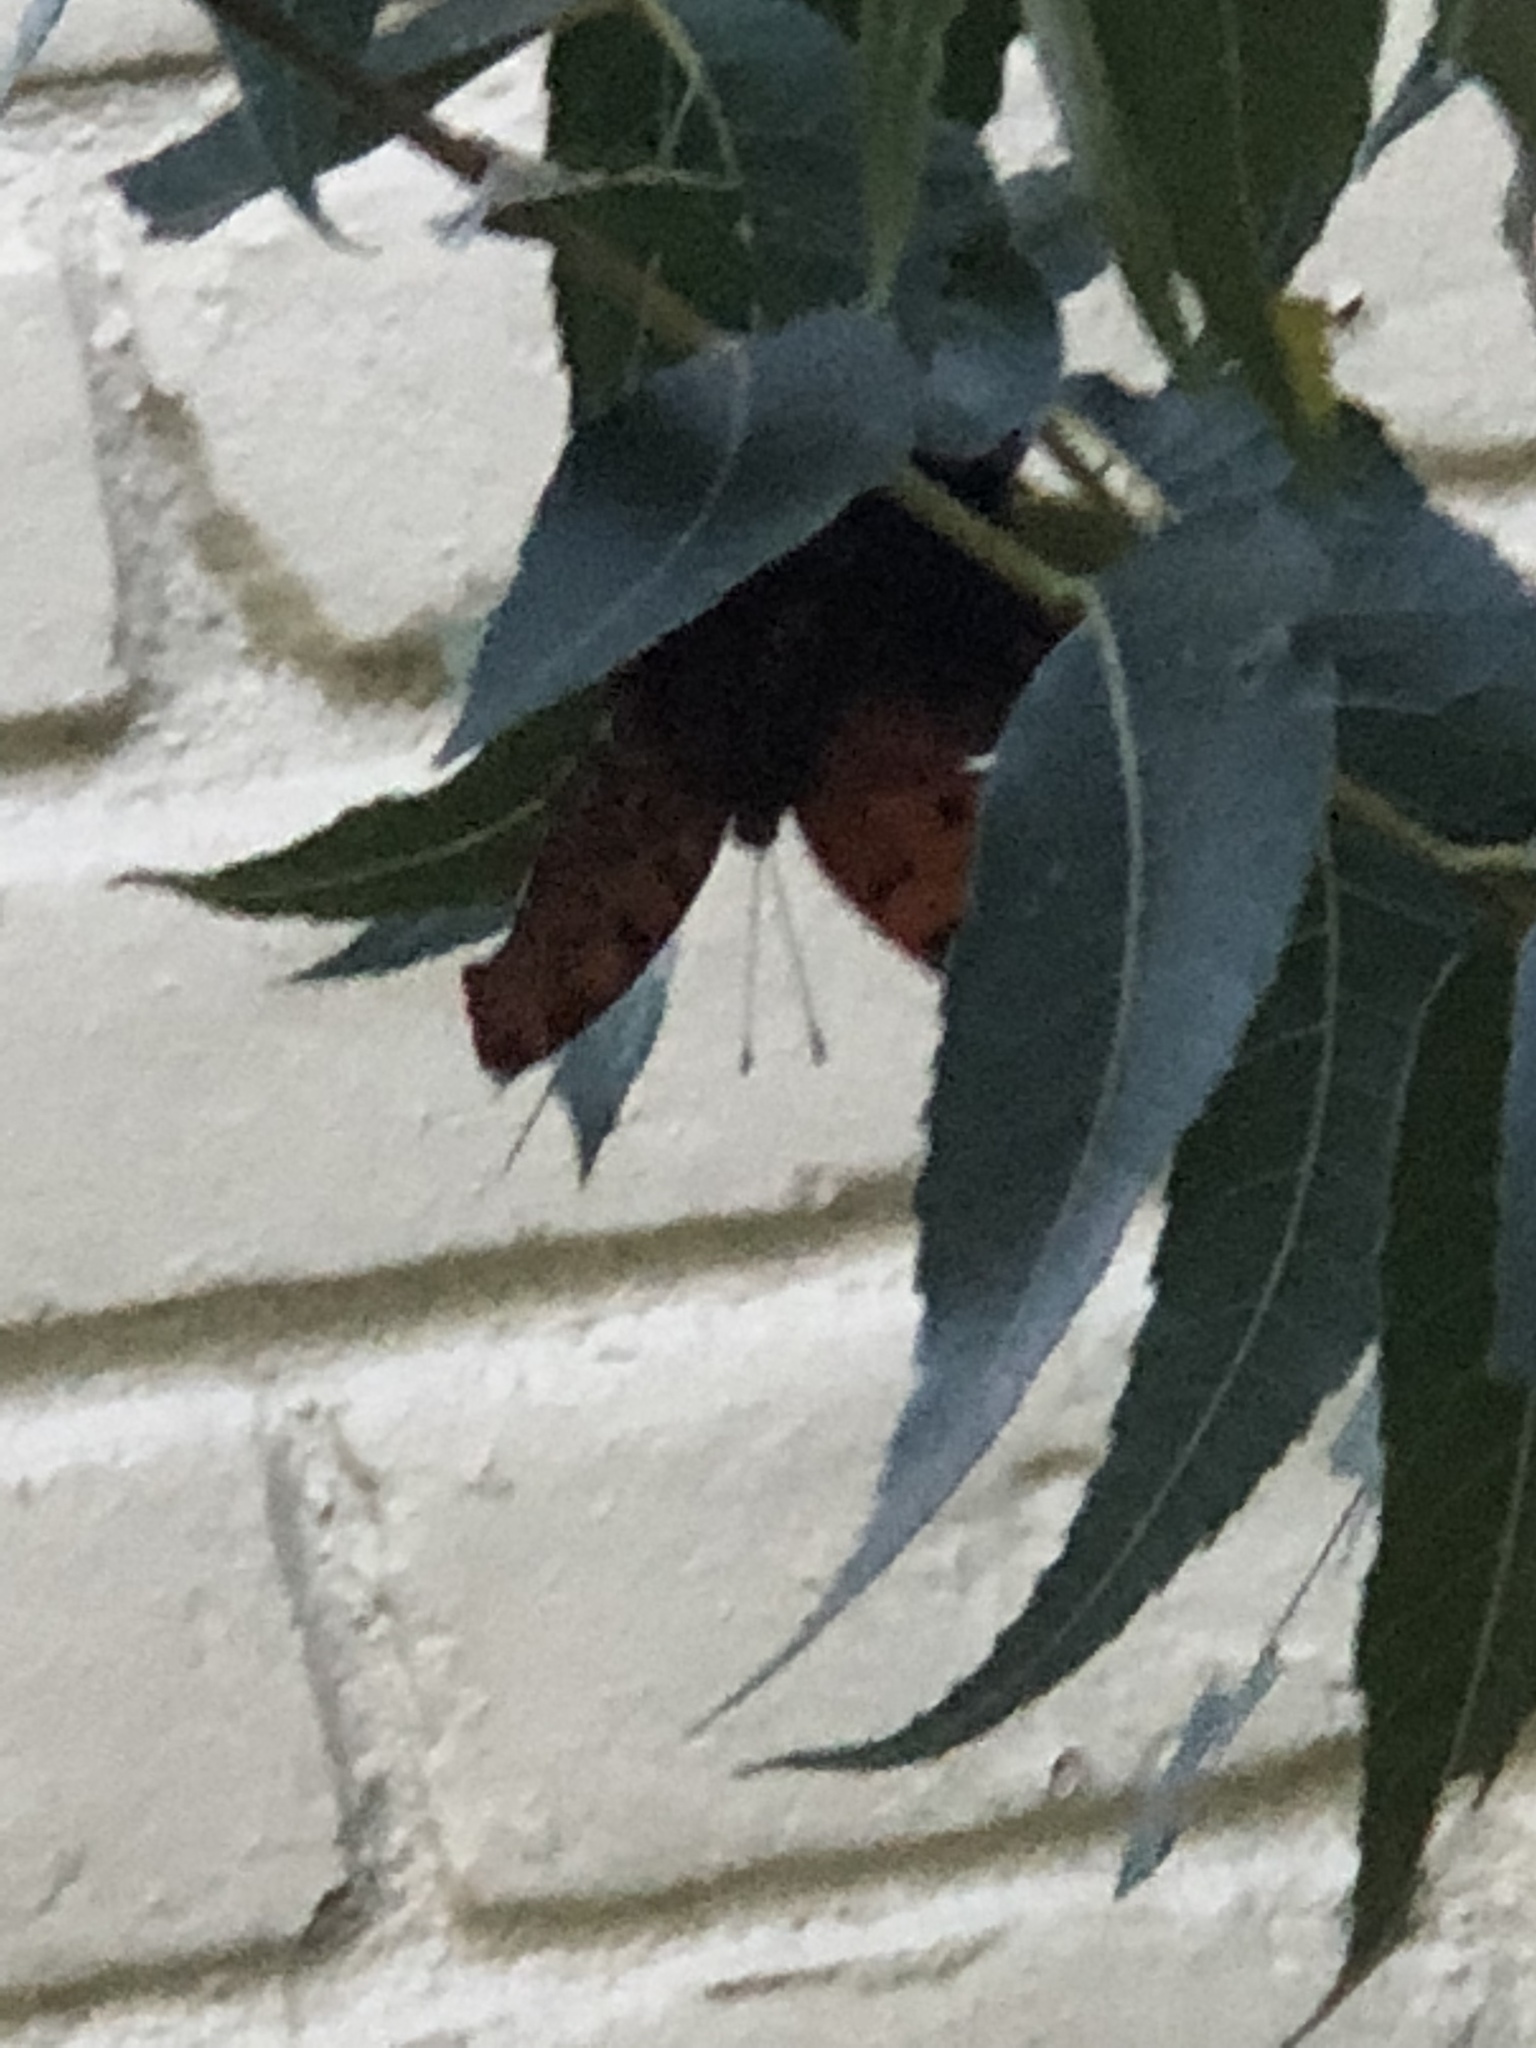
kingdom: Animalia
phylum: Arthropoda
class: Insecta
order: Lepidoptera
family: Nymphalidae
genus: Polygonia
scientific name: Polygonia interrogationis
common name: Question mark
